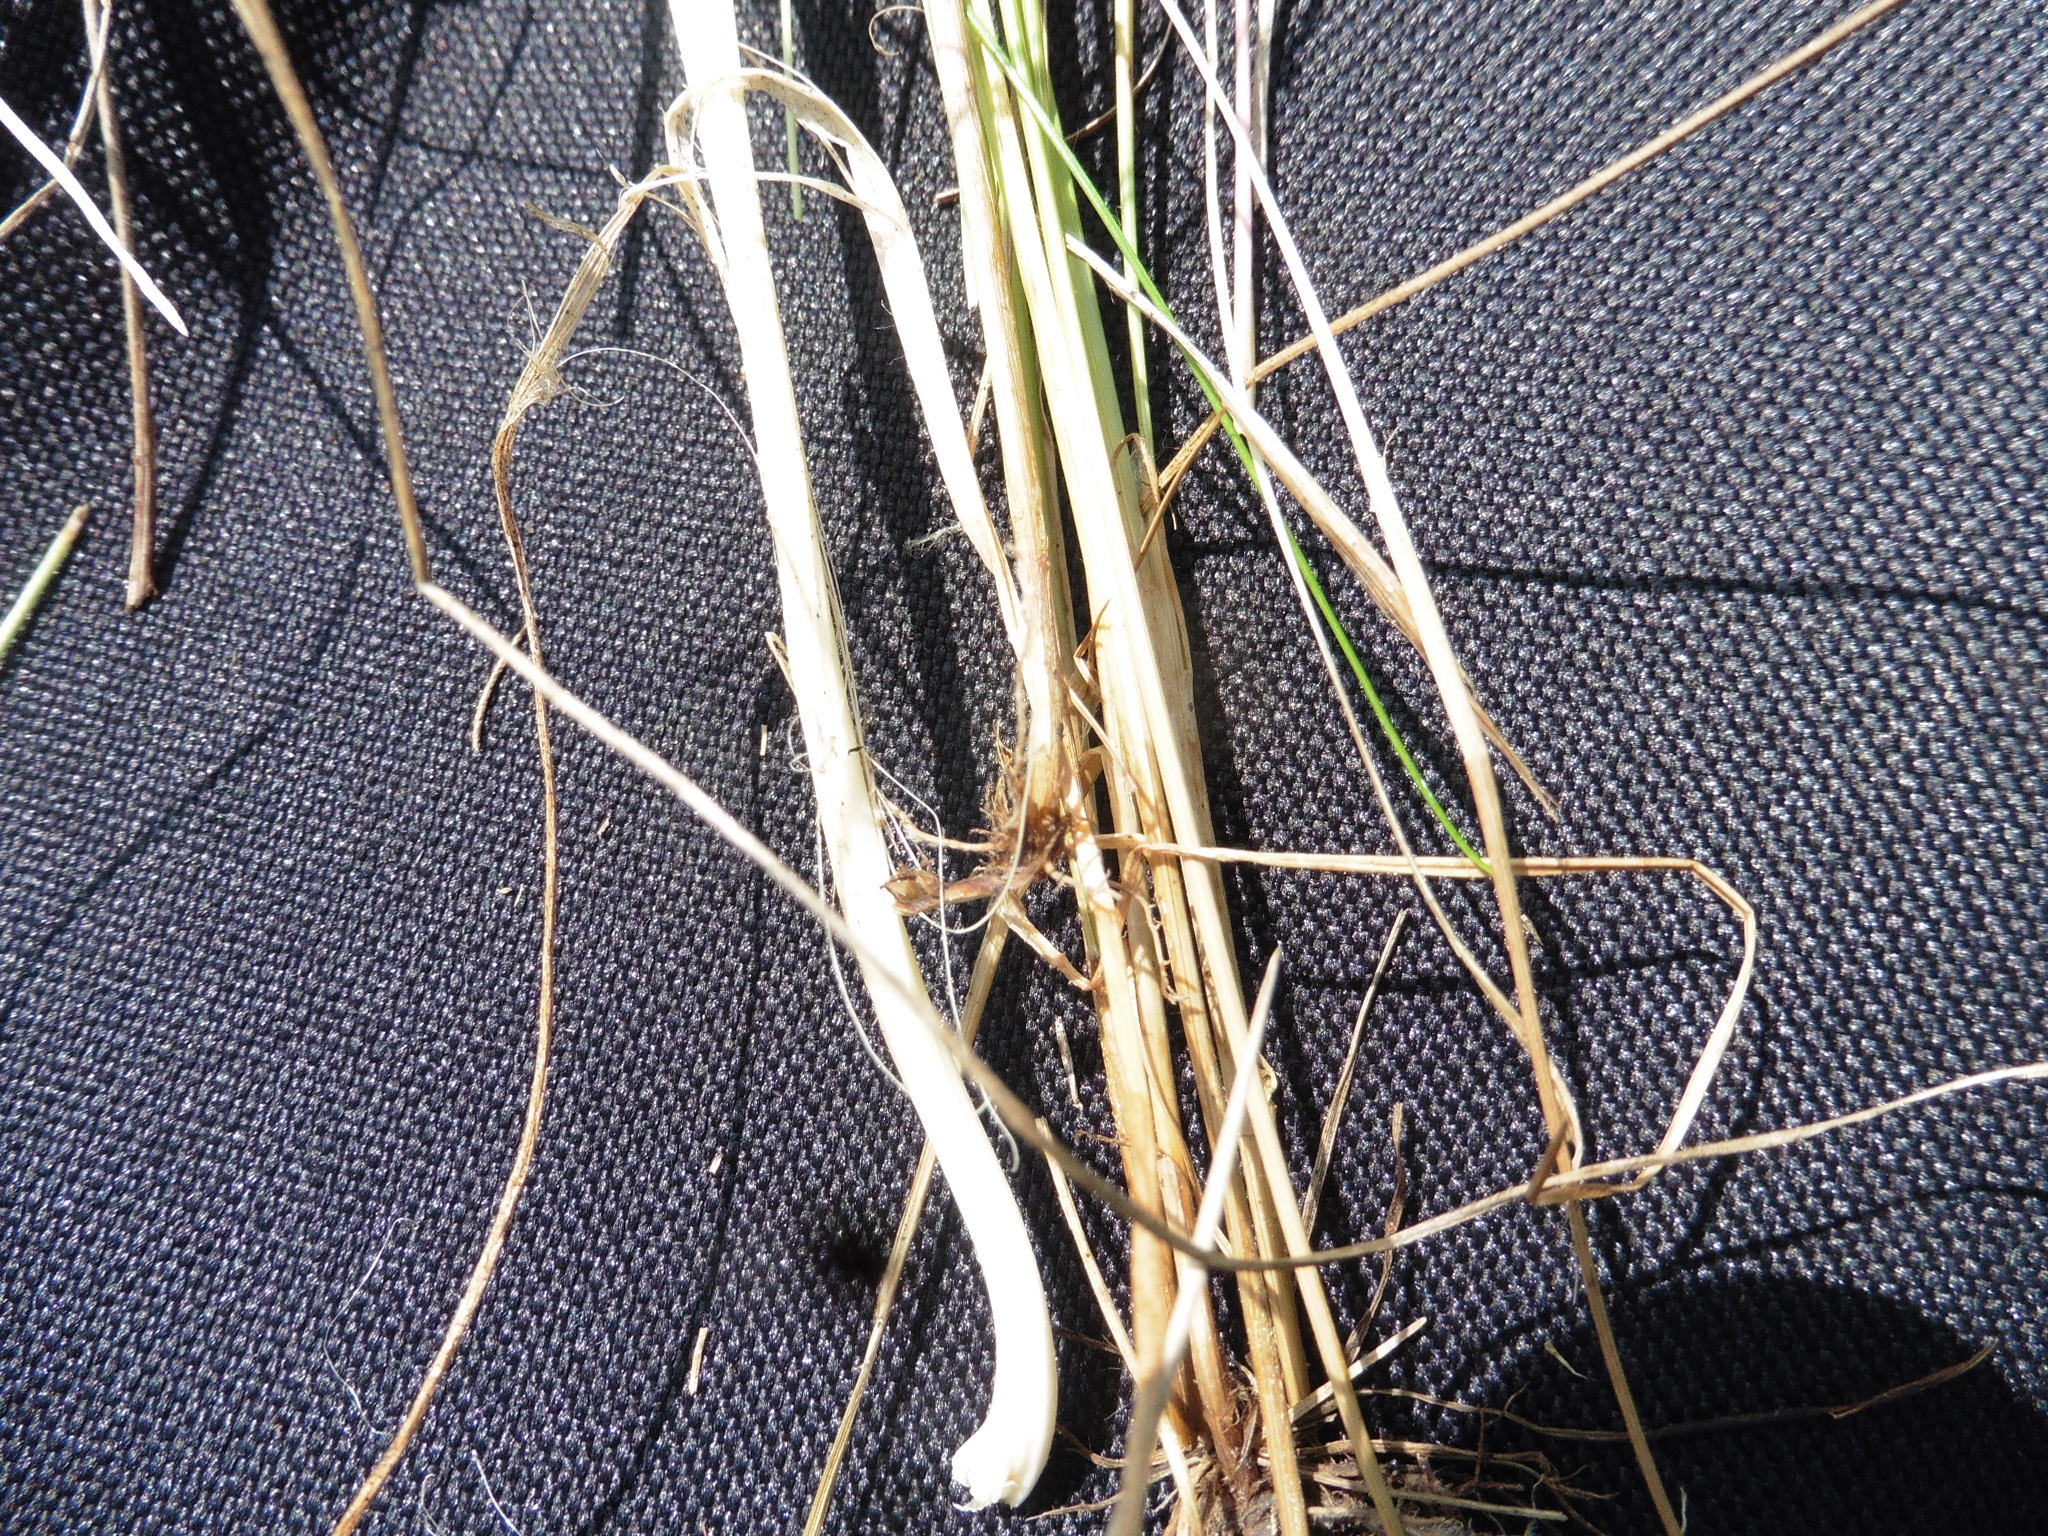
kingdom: Plantae
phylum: Tracheophyta
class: Liliopsida
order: Poales
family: Juncaceae
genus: Juncus
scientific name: Juncus compressus
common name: Round-fruited rush
